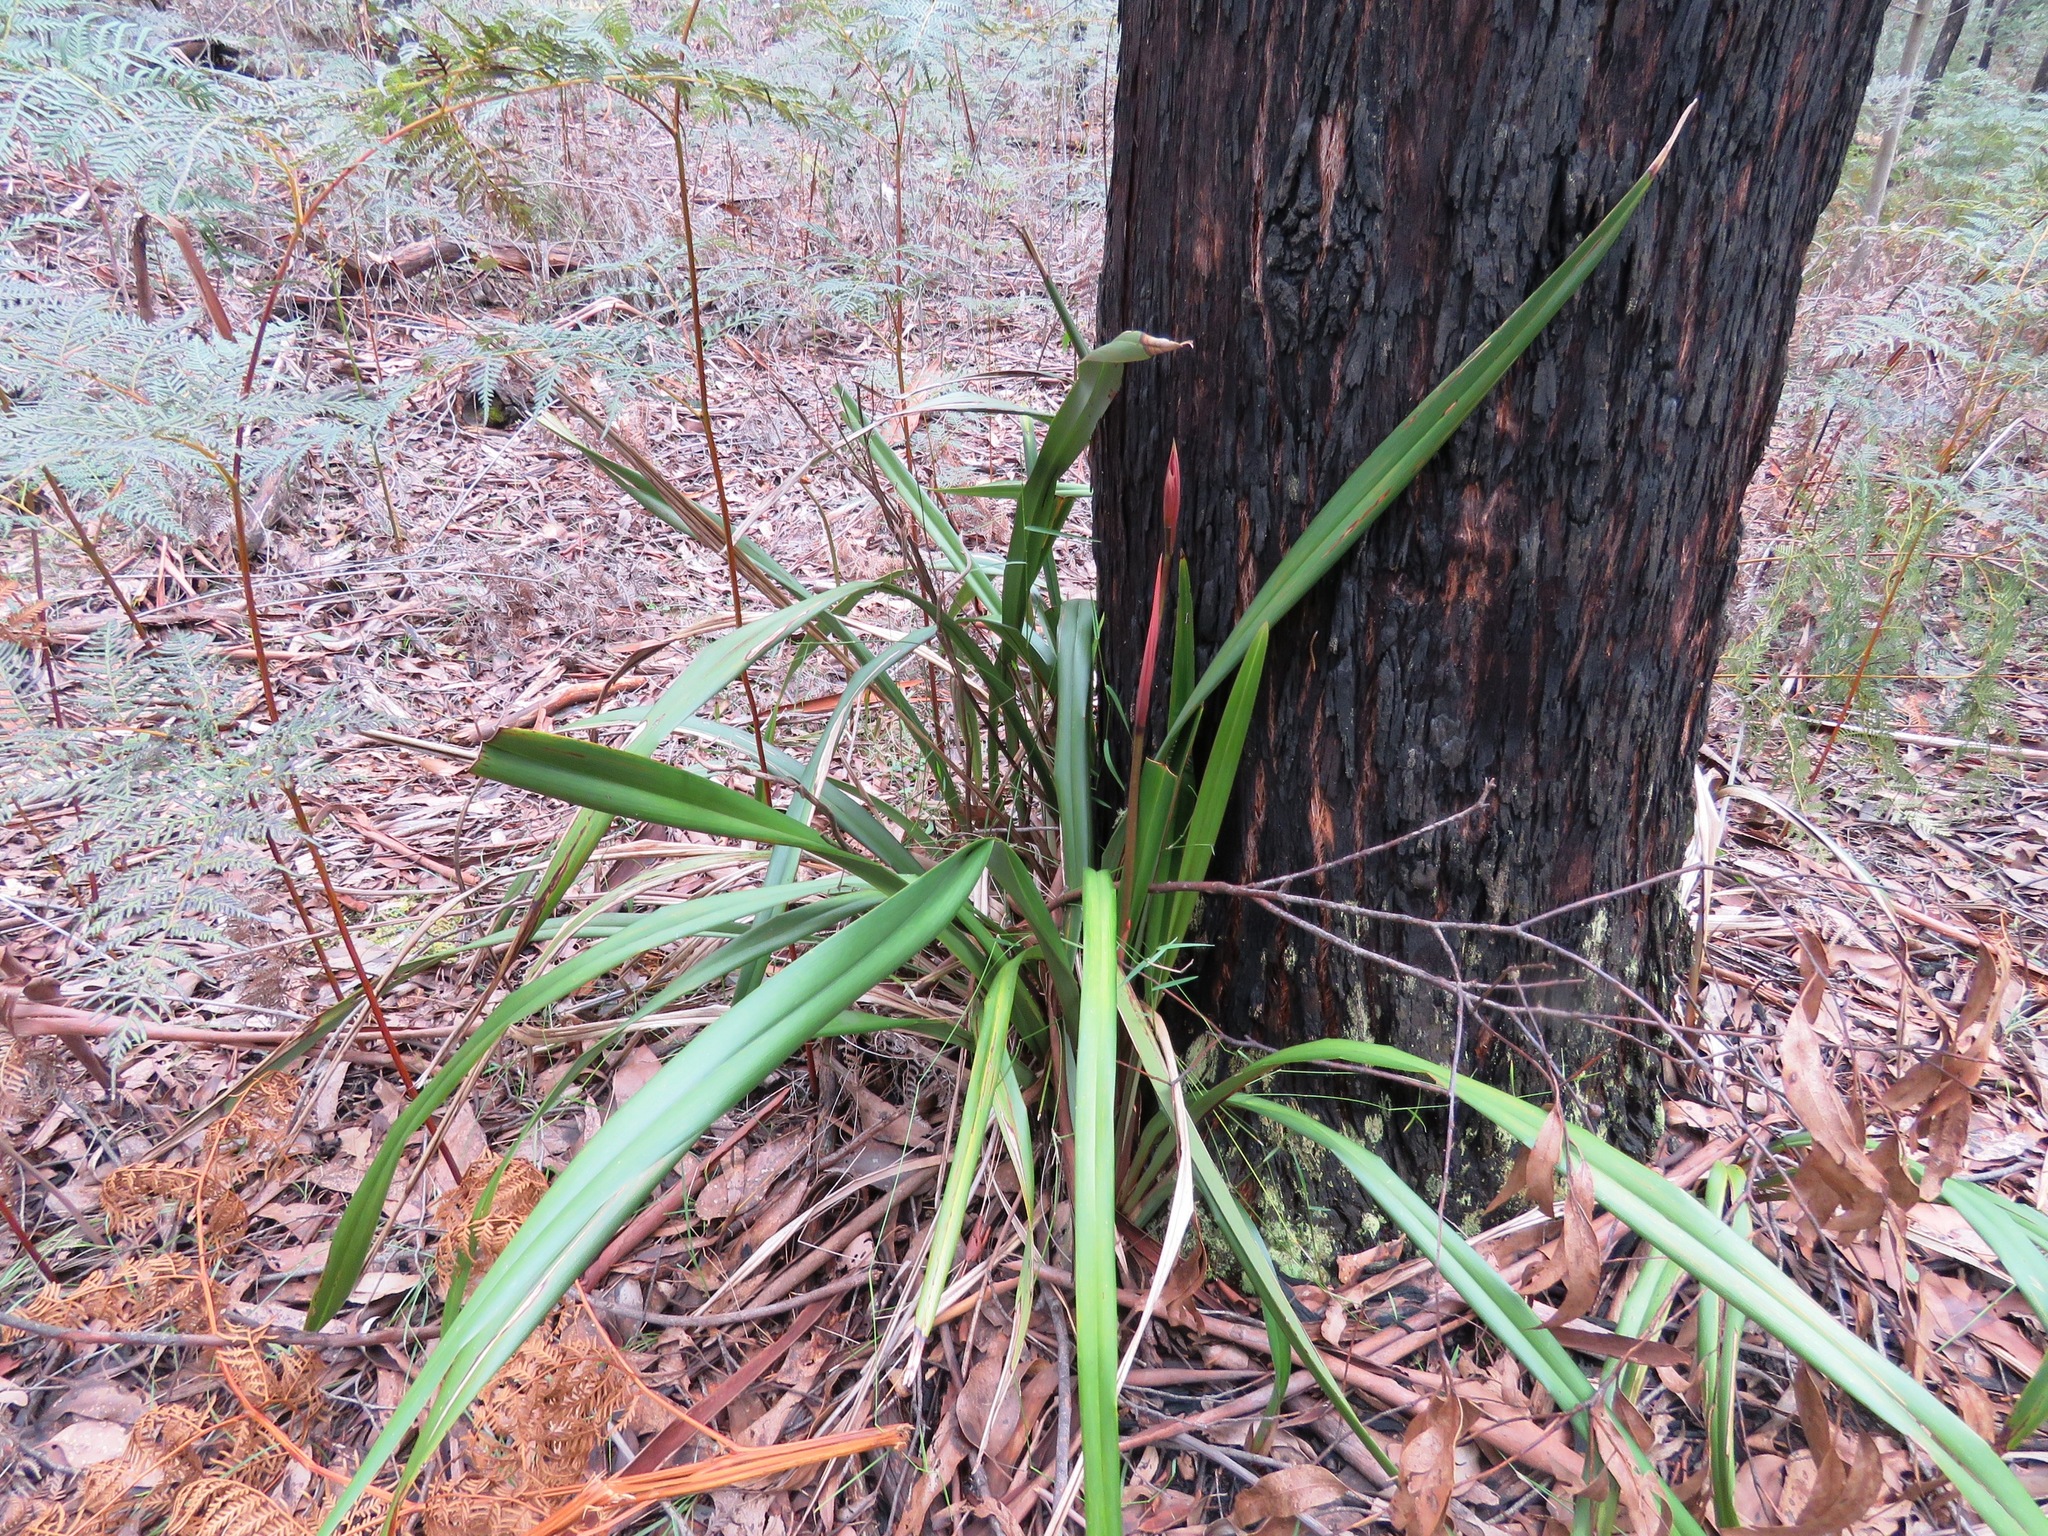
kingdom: Plantae
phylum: Tracheophyta
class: Liliopsida
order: Asparagales
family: Asphodelaceae
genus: Dianella
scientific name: Dianella tasmanica
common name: Tasman flax-lily
